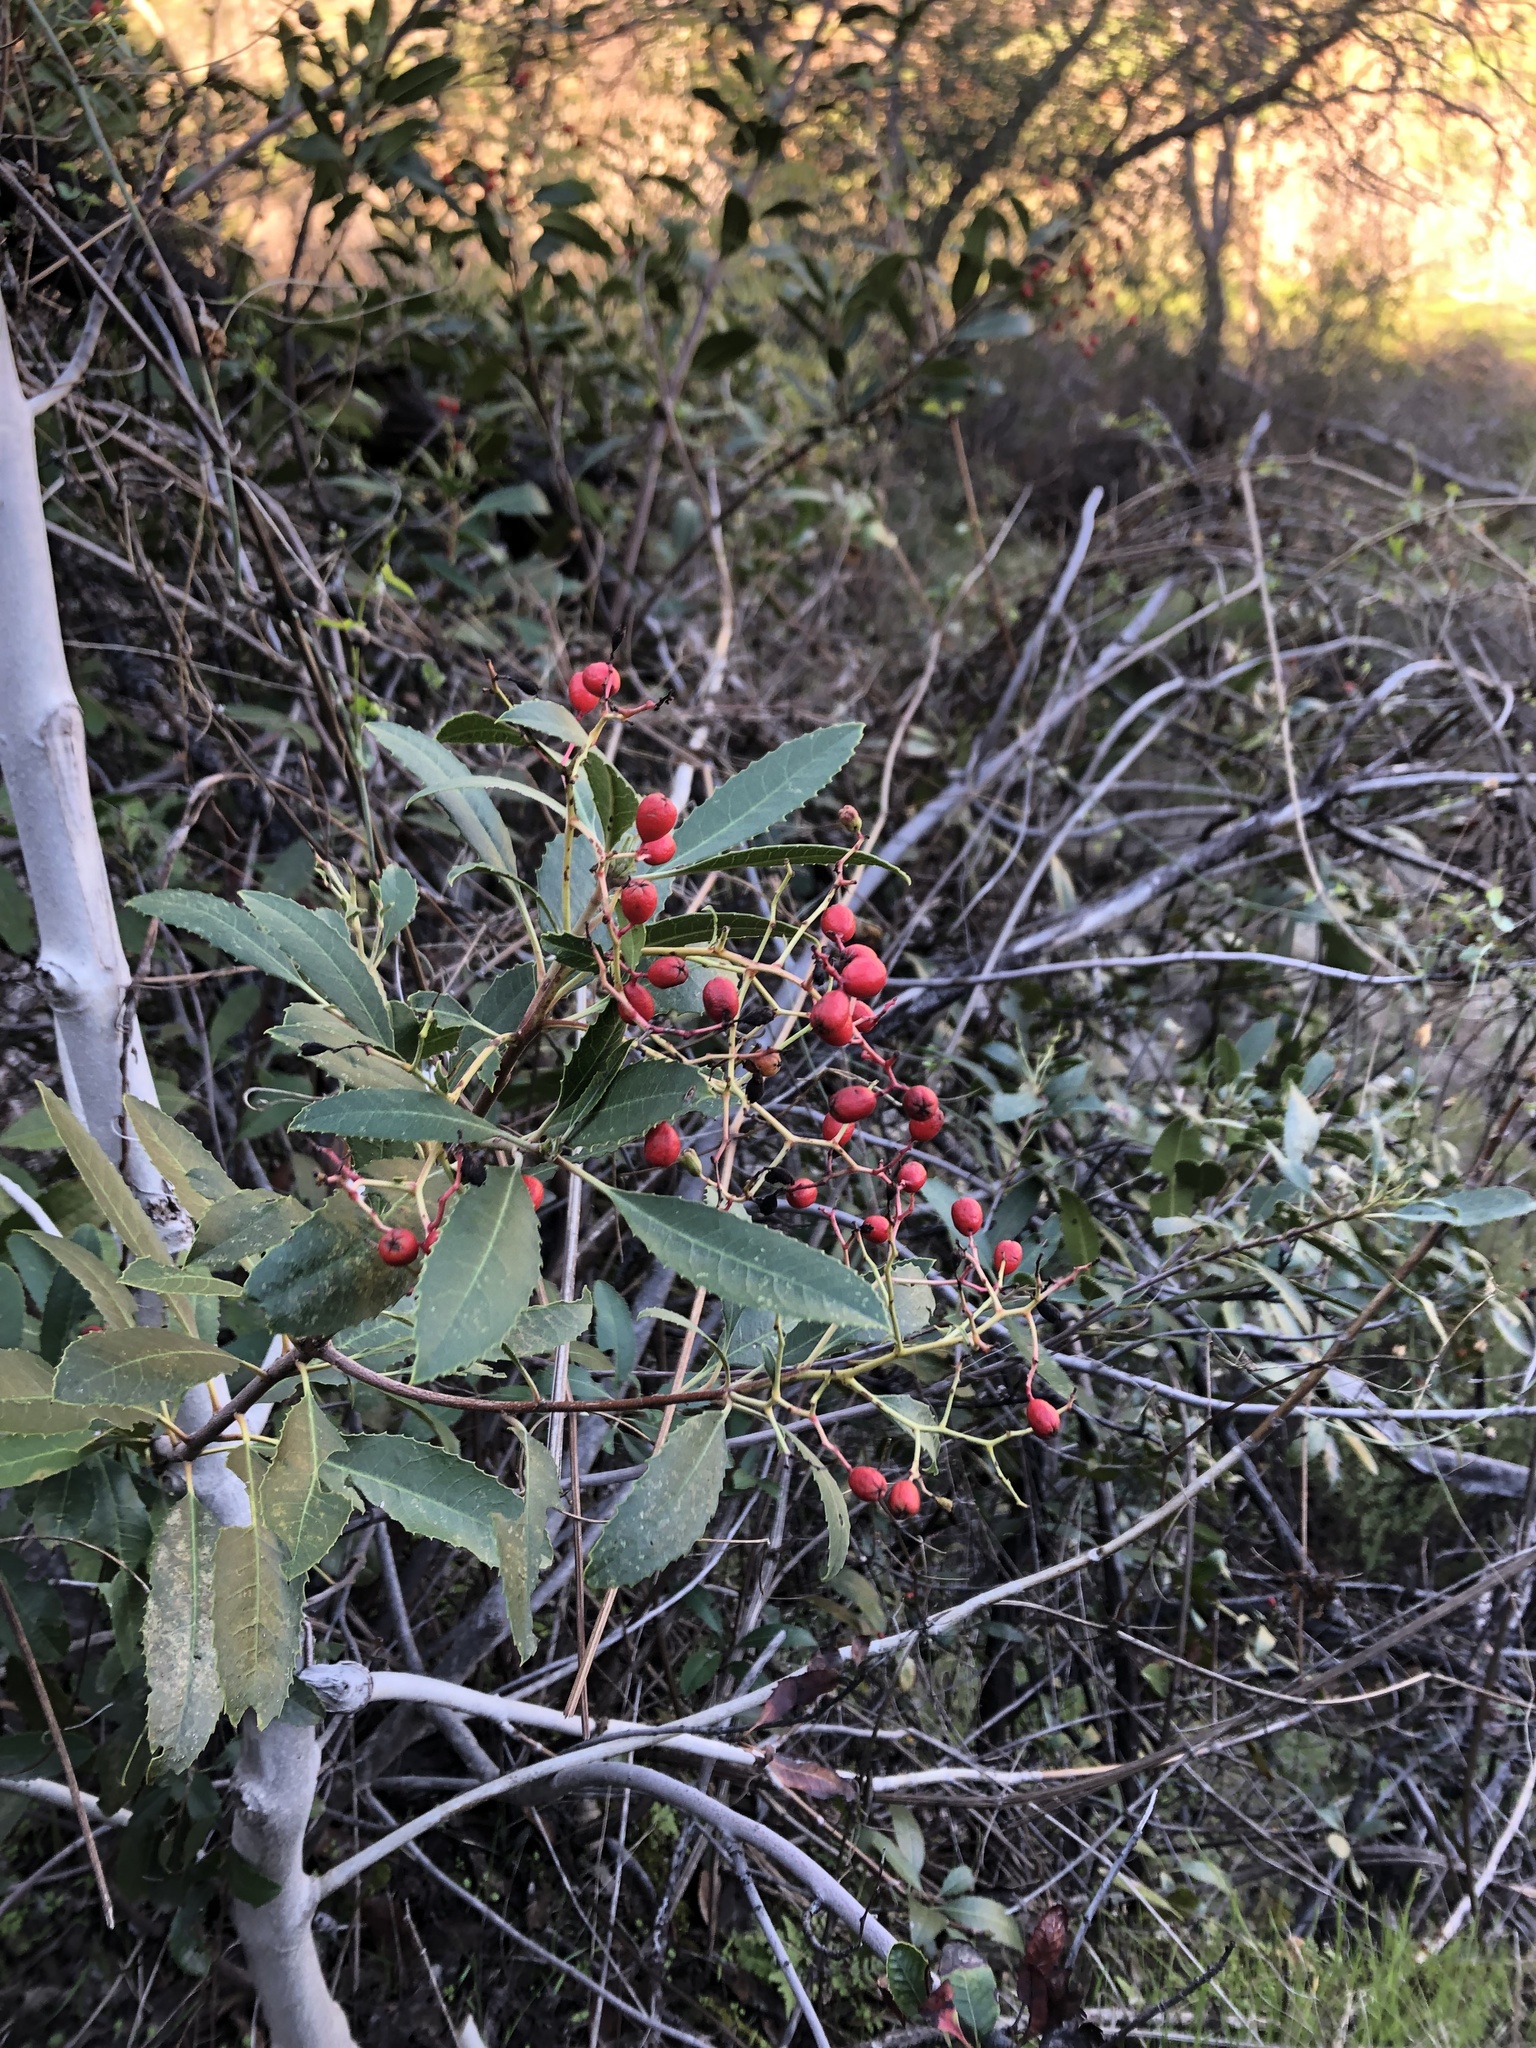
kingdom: Plantae
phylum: Tracheophyta
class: Magnoliopsida
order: Rosales
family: Rosaceae
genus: Heteromeles
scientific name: Heteromeles arbutifolia
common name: California-holly
